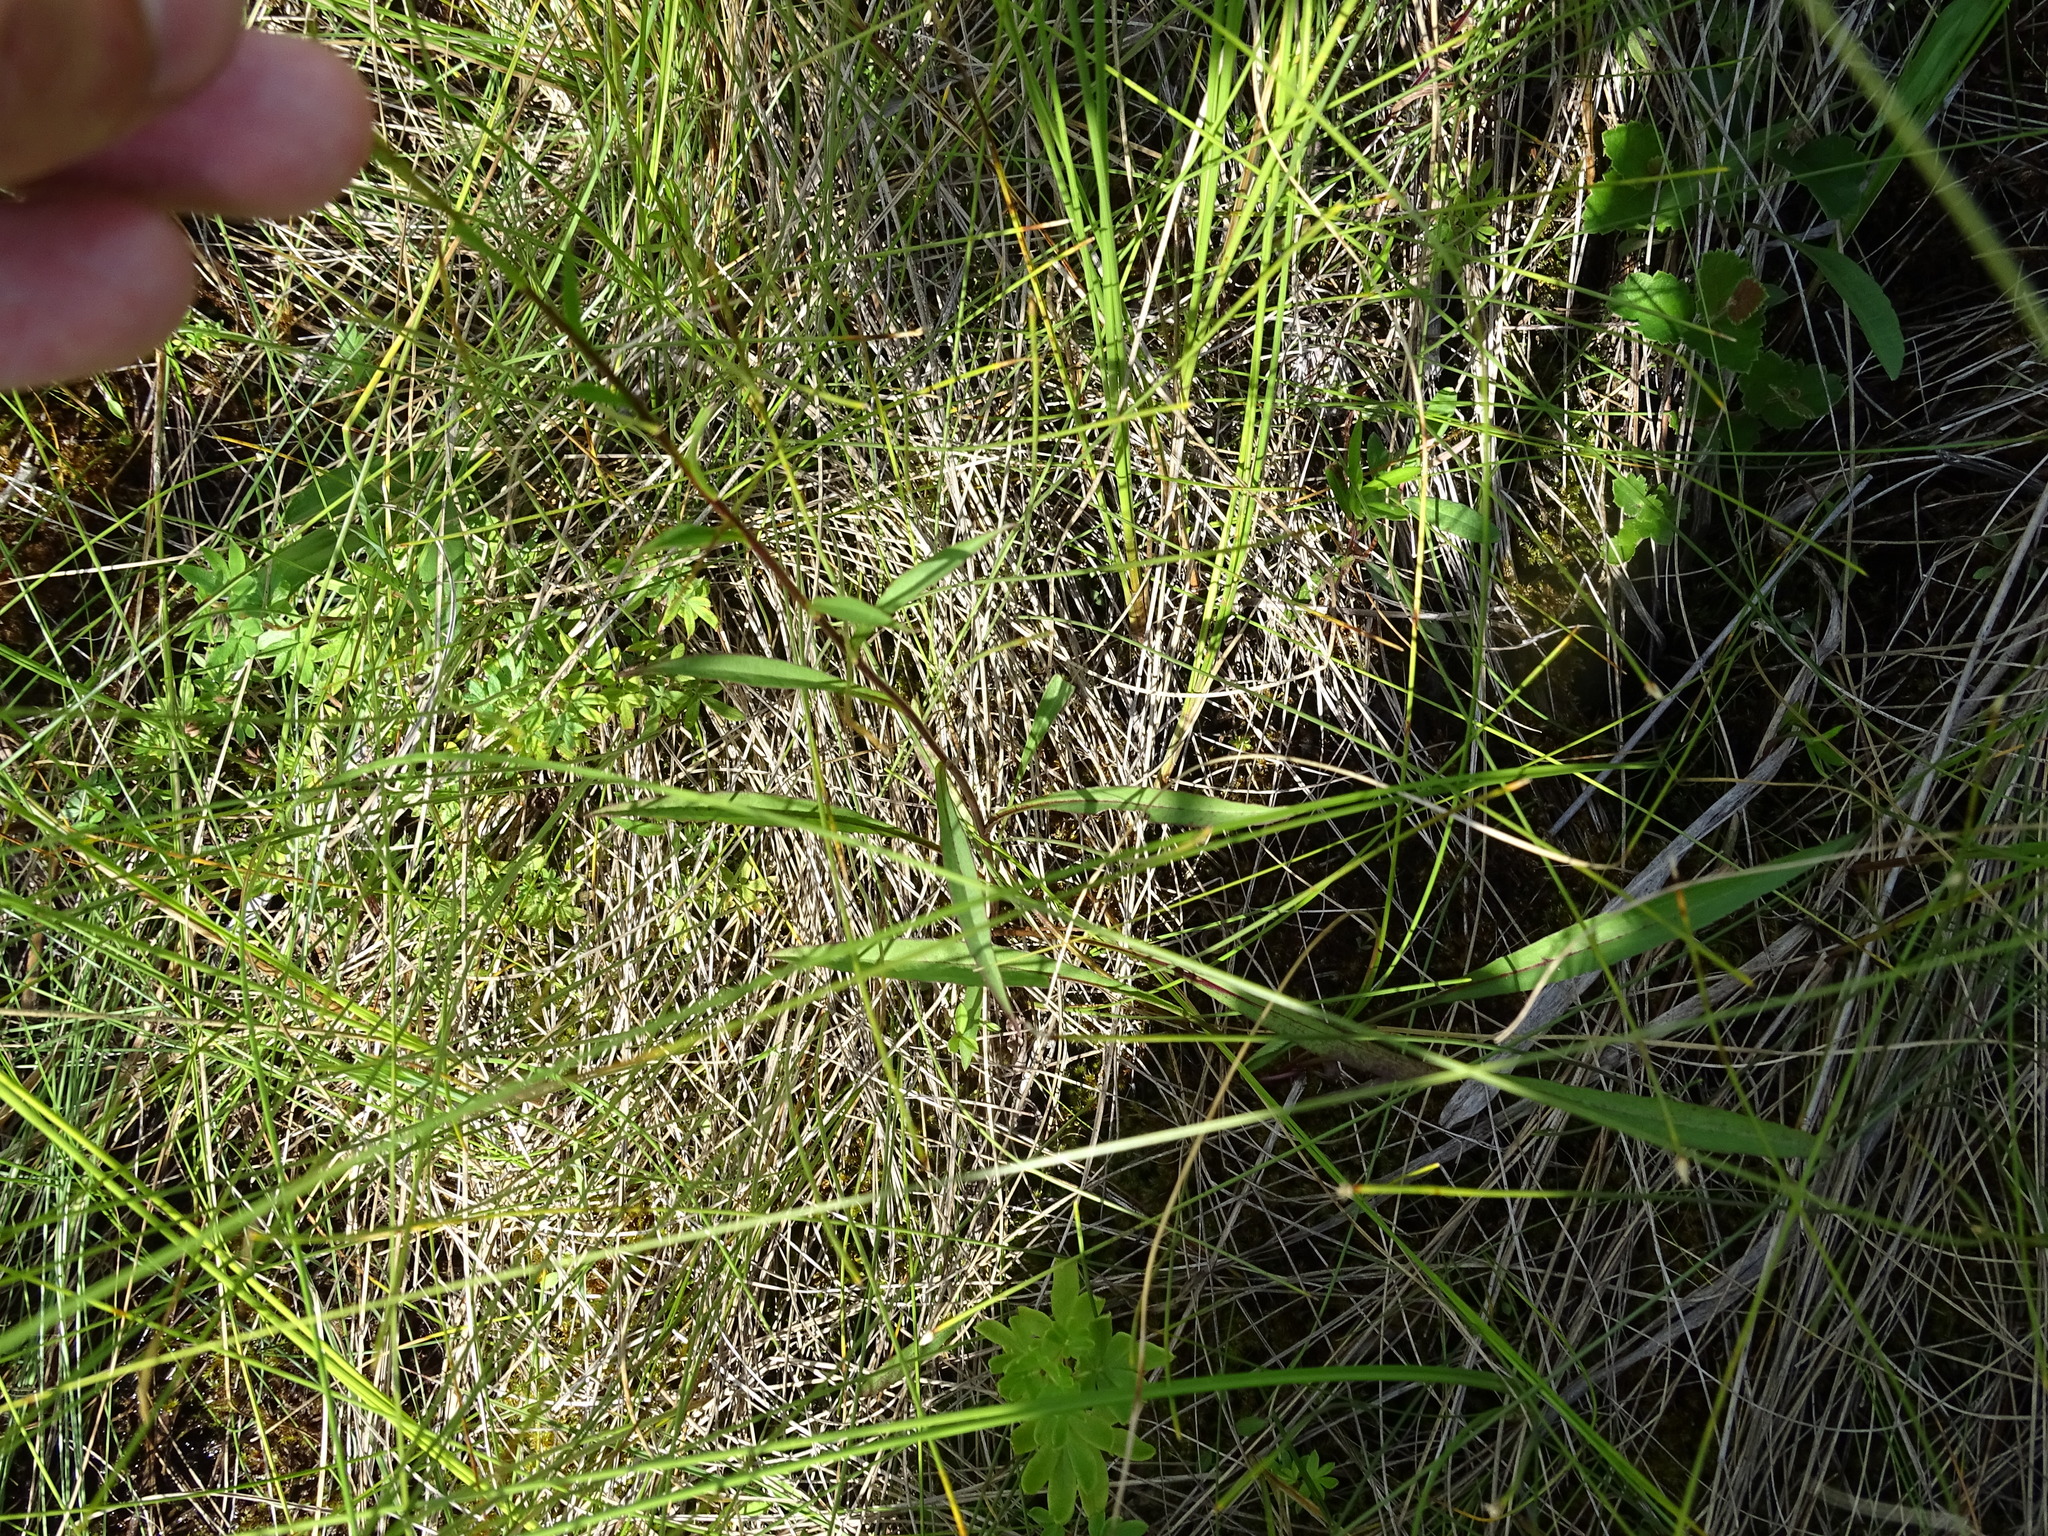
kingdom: Plantae
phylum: Tracheophyta
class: Magnoliopsida
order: Asterales
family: Asteraceae
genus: Solidago
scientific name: Solidago uliginosa
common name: Bog goldenrod
